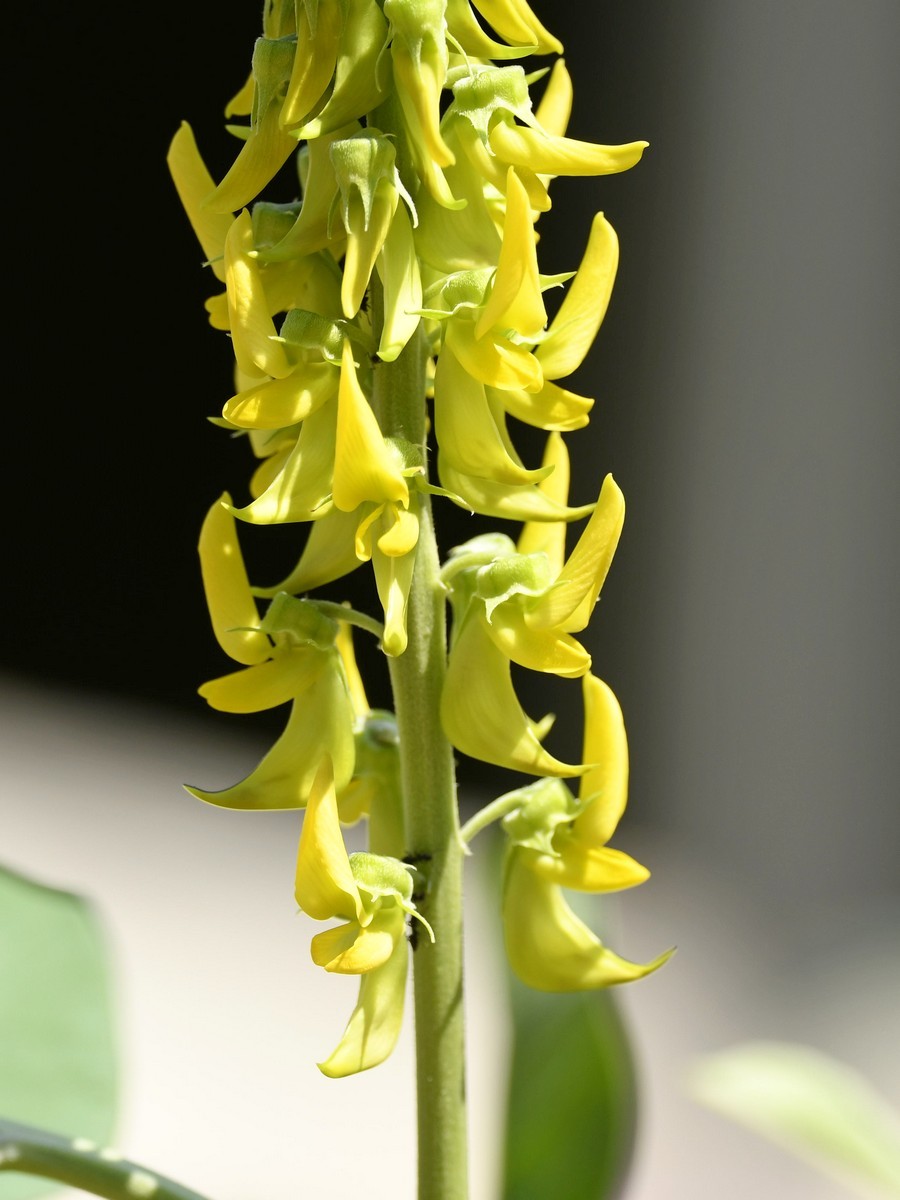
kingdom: Plantae
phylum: Tracheophyta
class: Magnoliopsida
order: Fabales
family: Fabaceae
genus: Crotalaria
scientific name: Crotalaria pallida
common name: Smooth rattlebox
